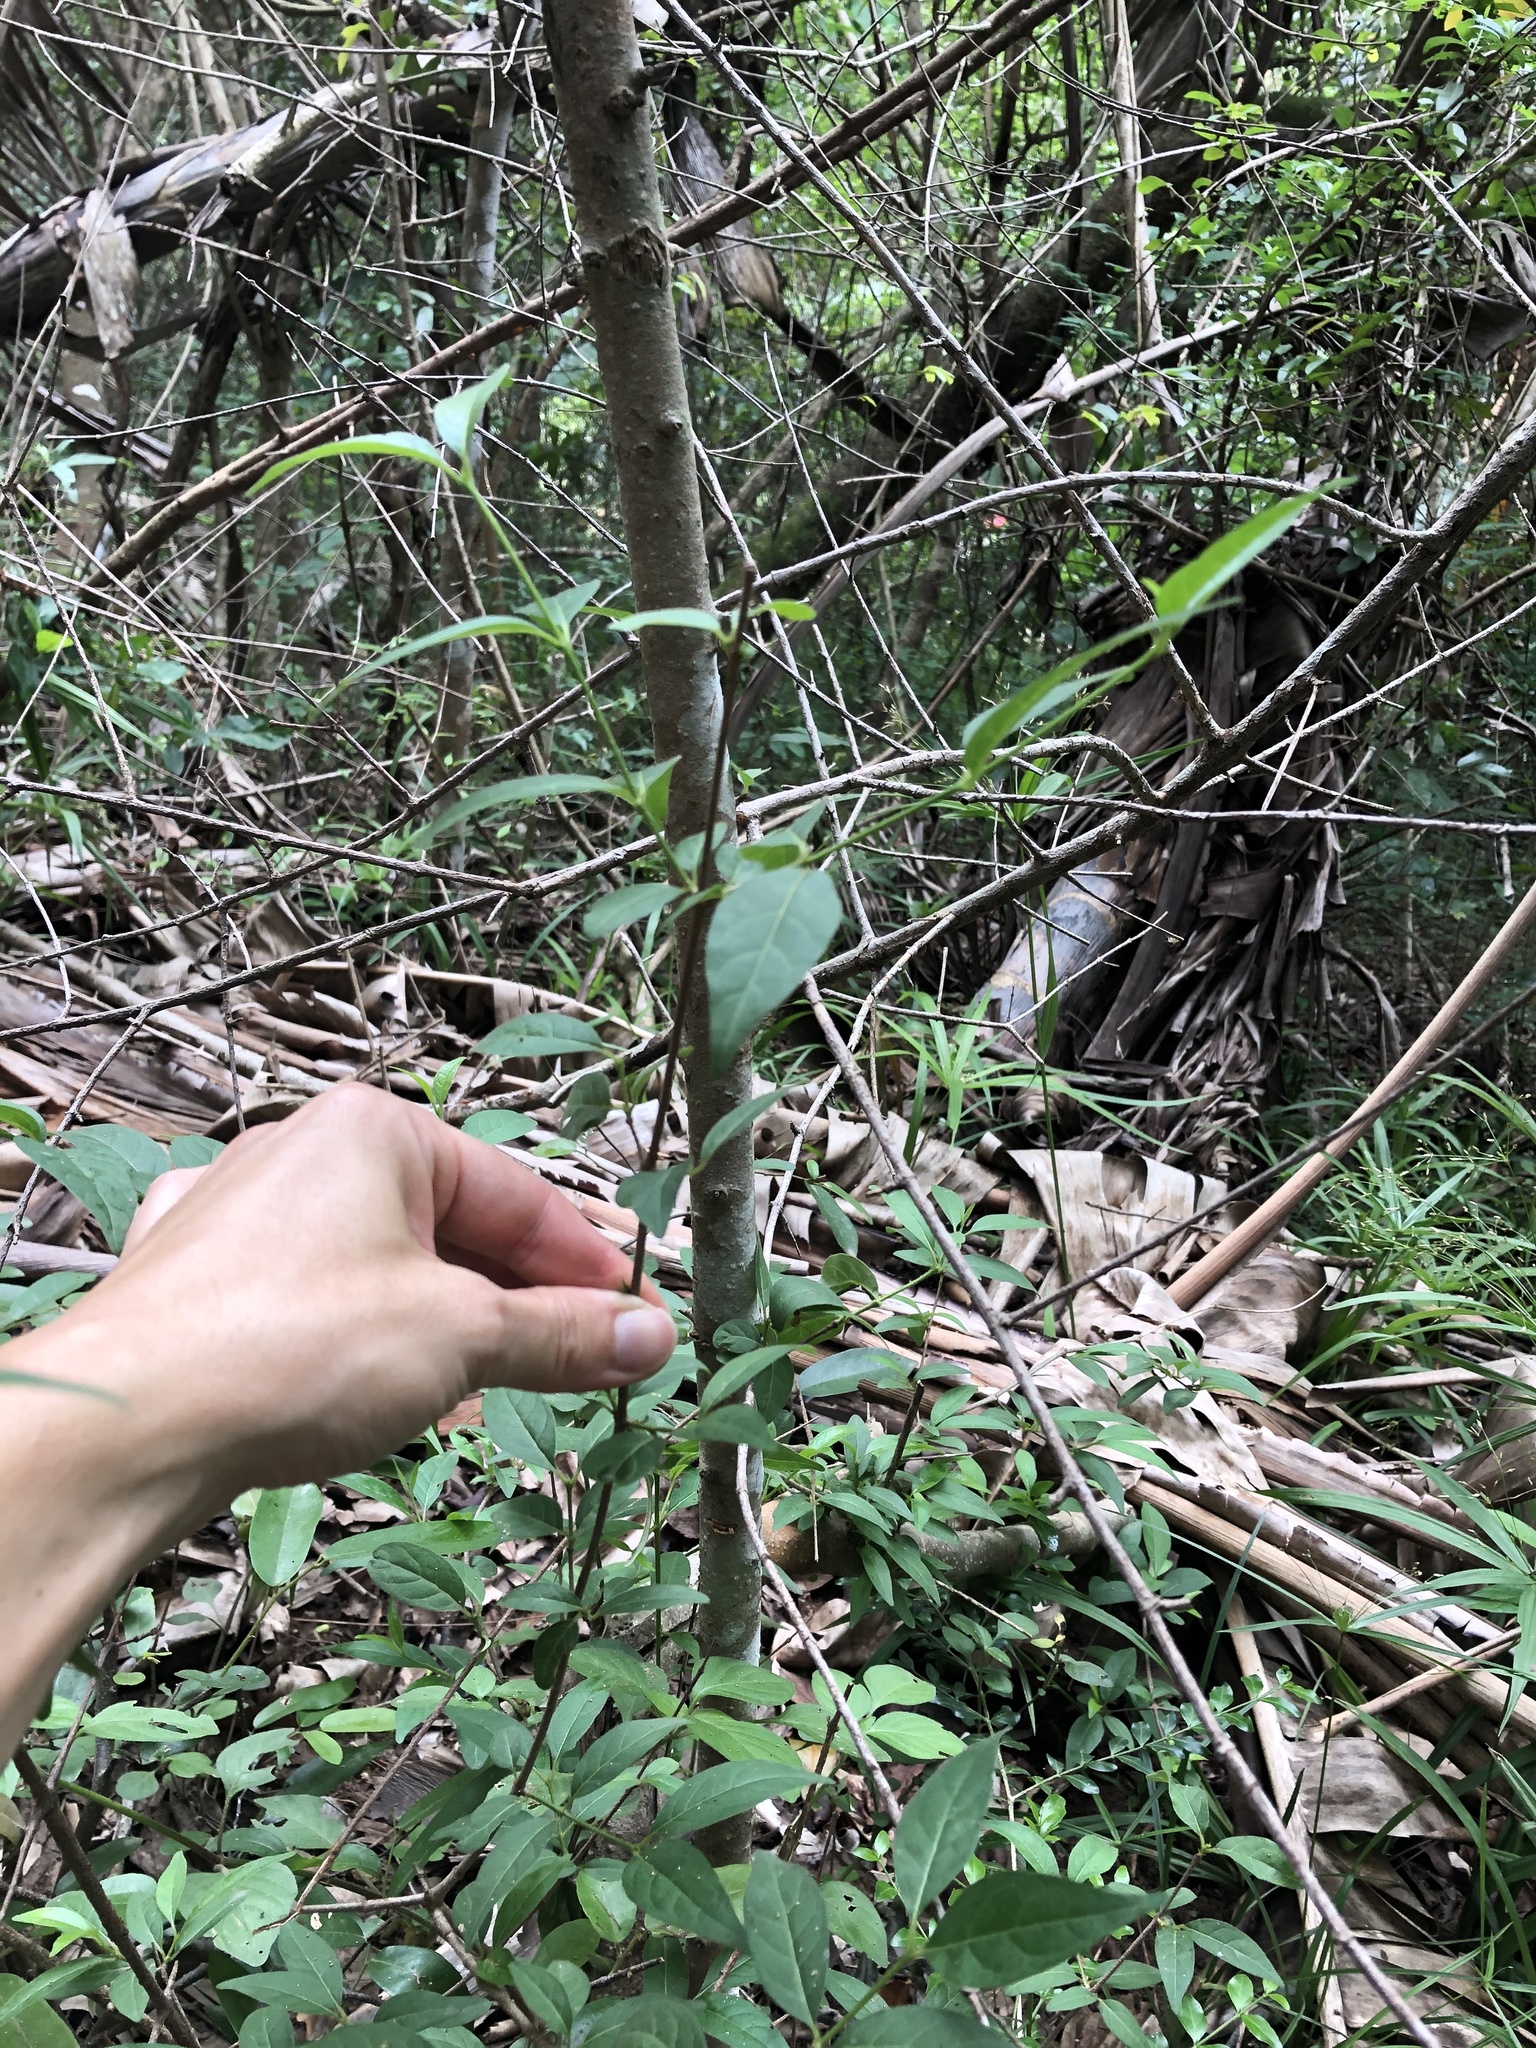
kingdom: Plantae
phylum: Tracheophyta
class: Magnoliopsida
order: Gentianales
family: Rubiaceae
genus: Vangueria
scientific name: Vangueria lasiantha
